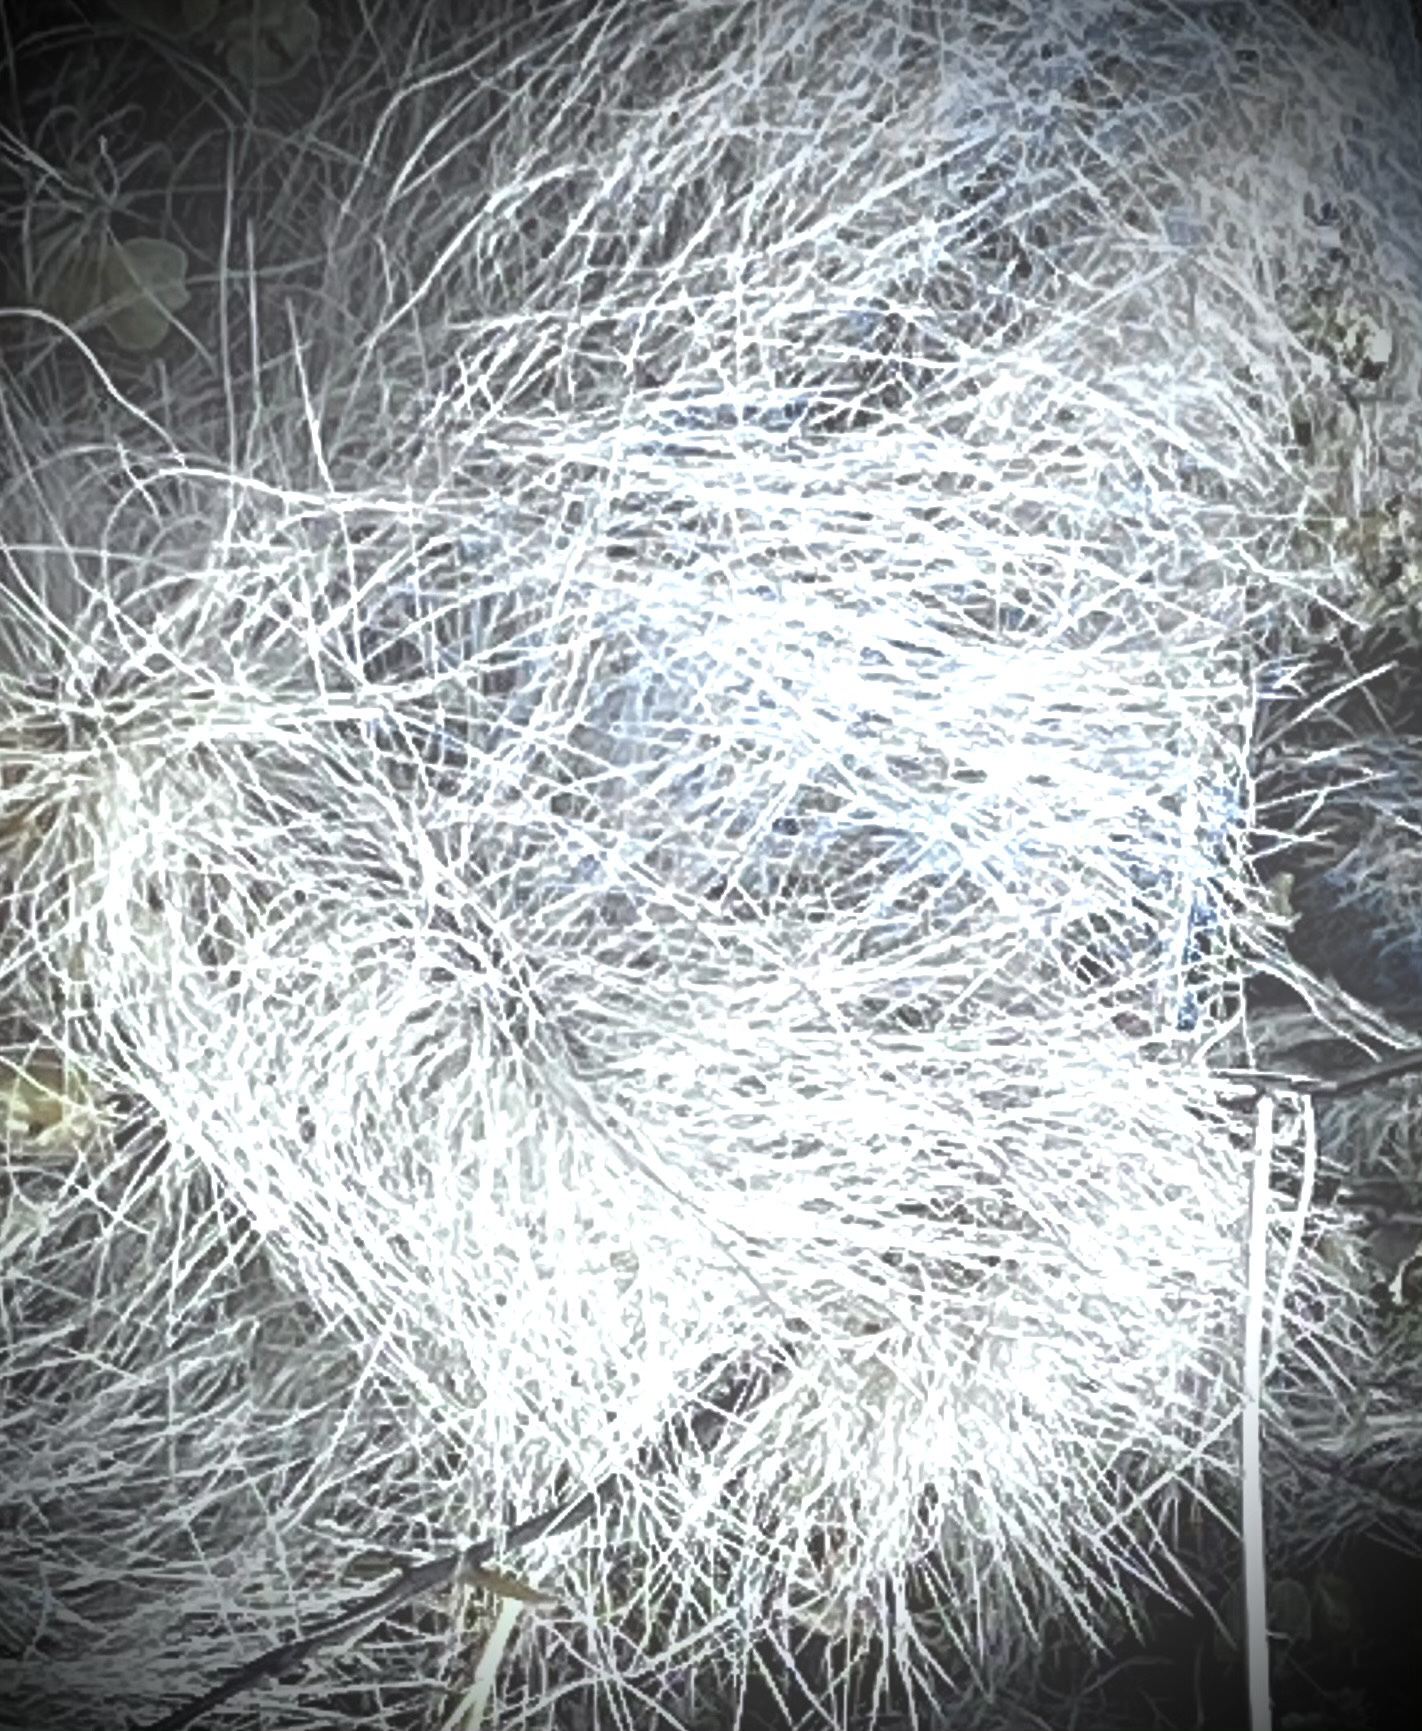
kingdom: Plantae
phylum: Tracheophyta
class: Magnoliopsida
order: Caryophyllales
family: Cactaceae
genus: Opuntia
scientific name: Opuntia polyacantha
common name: Plains prickly-pear
